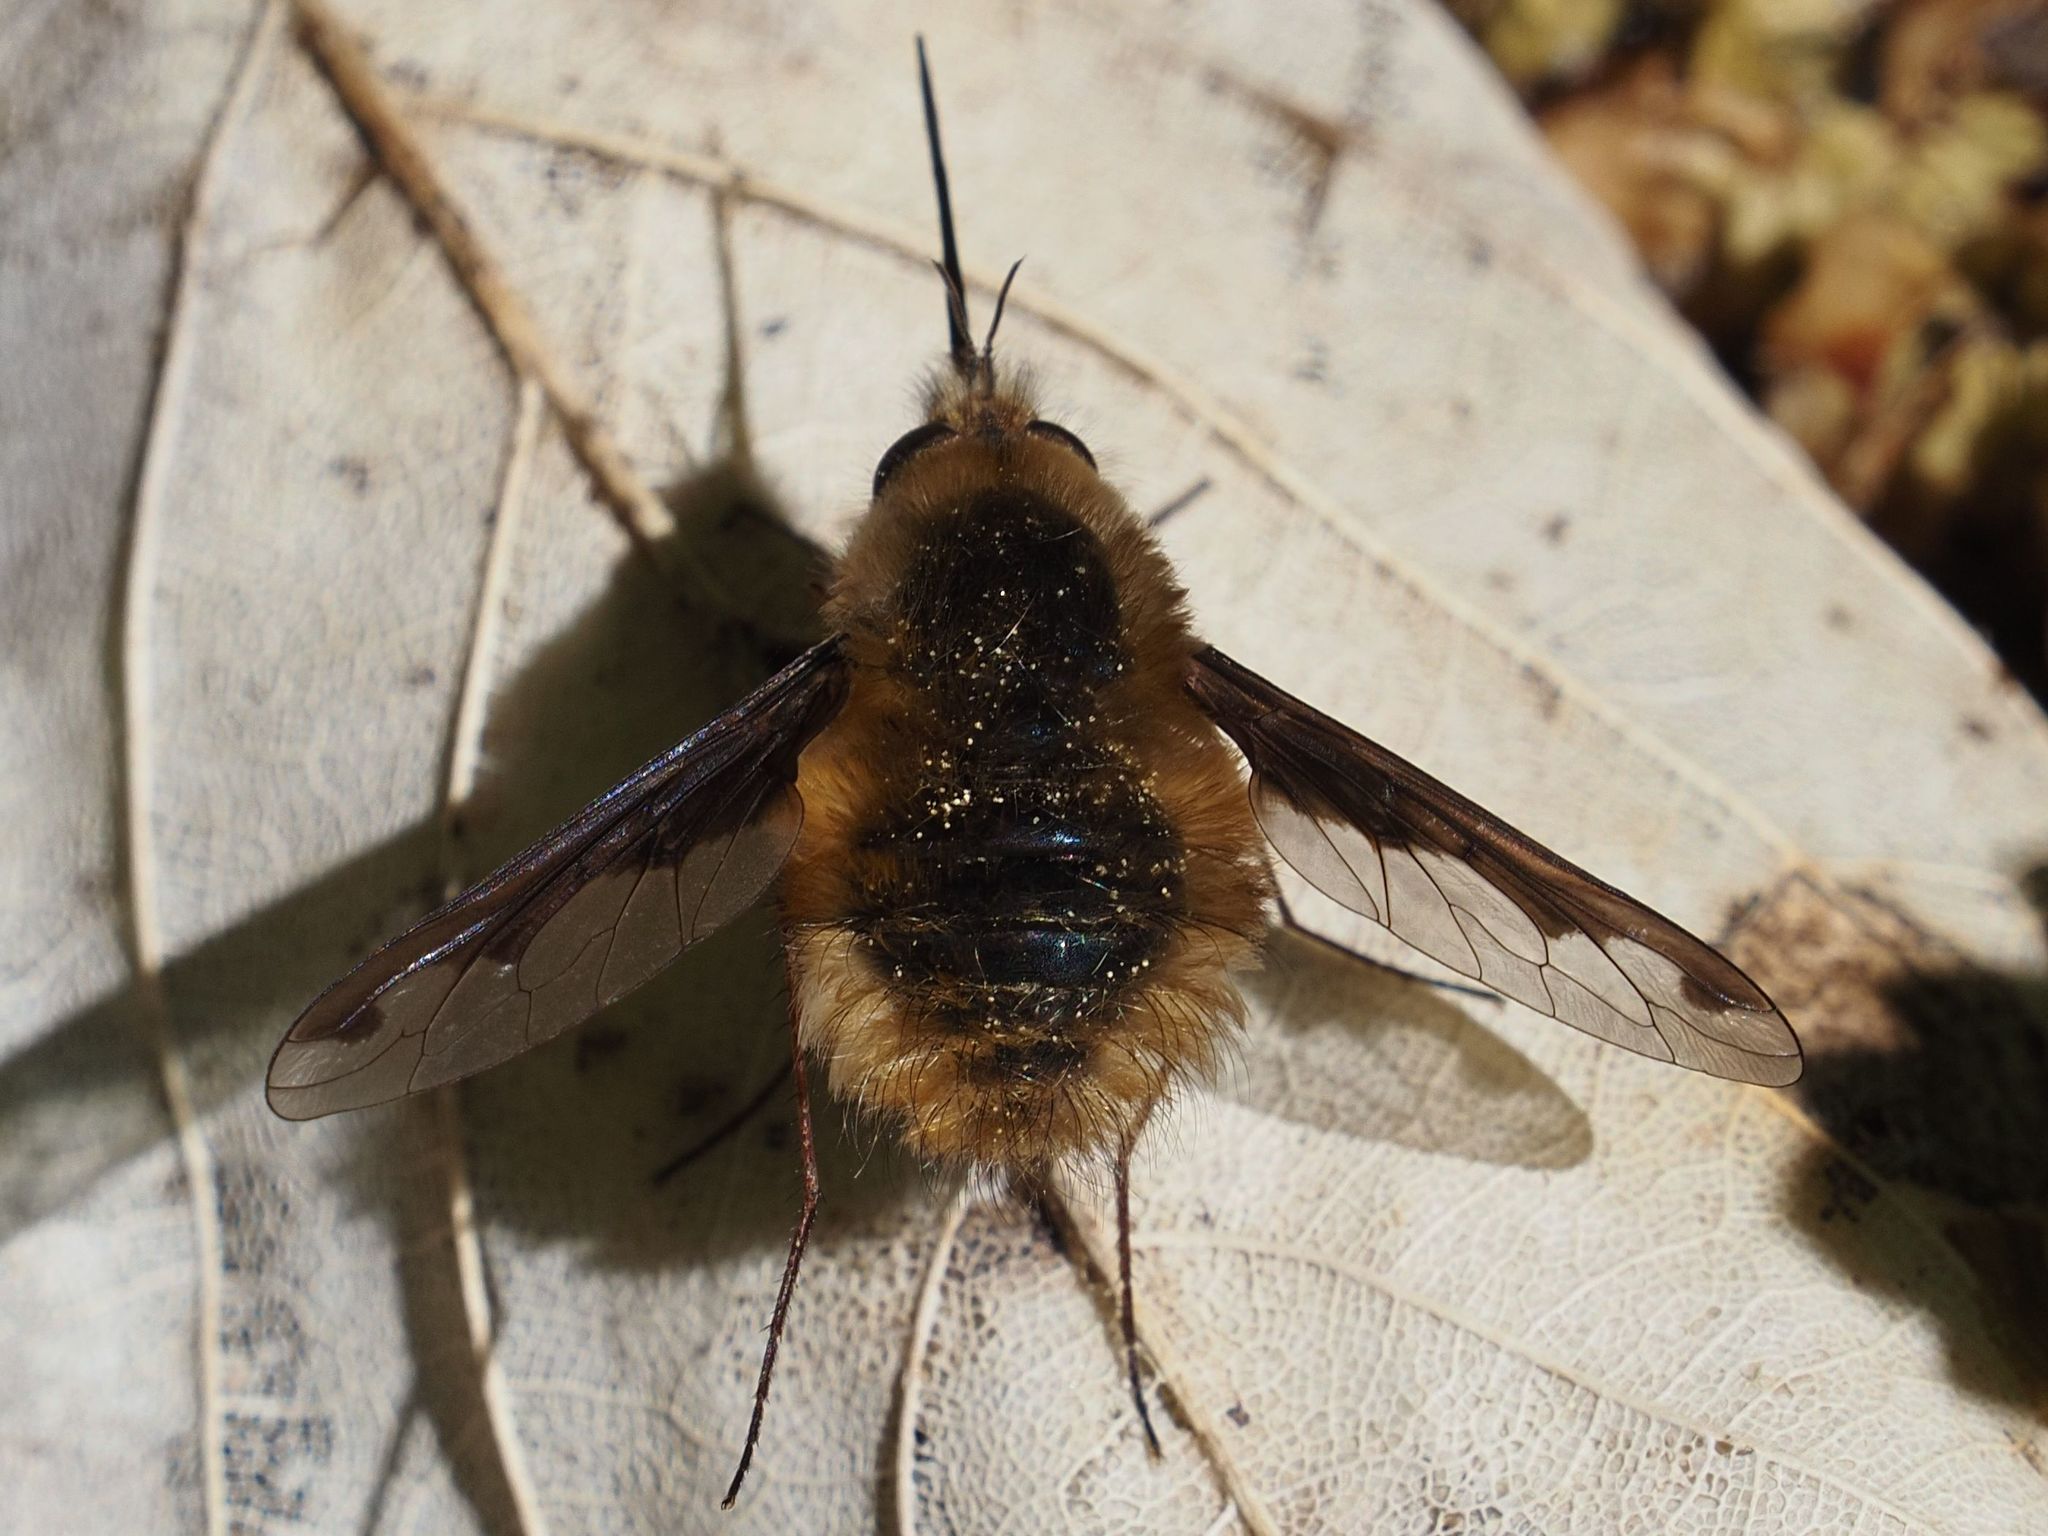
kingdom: Animalia
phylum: Arthropoda
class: Insecta
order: Diptera
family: Bombyliidae
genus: Bombylius
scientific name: Bombylius major
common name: Bee fly
